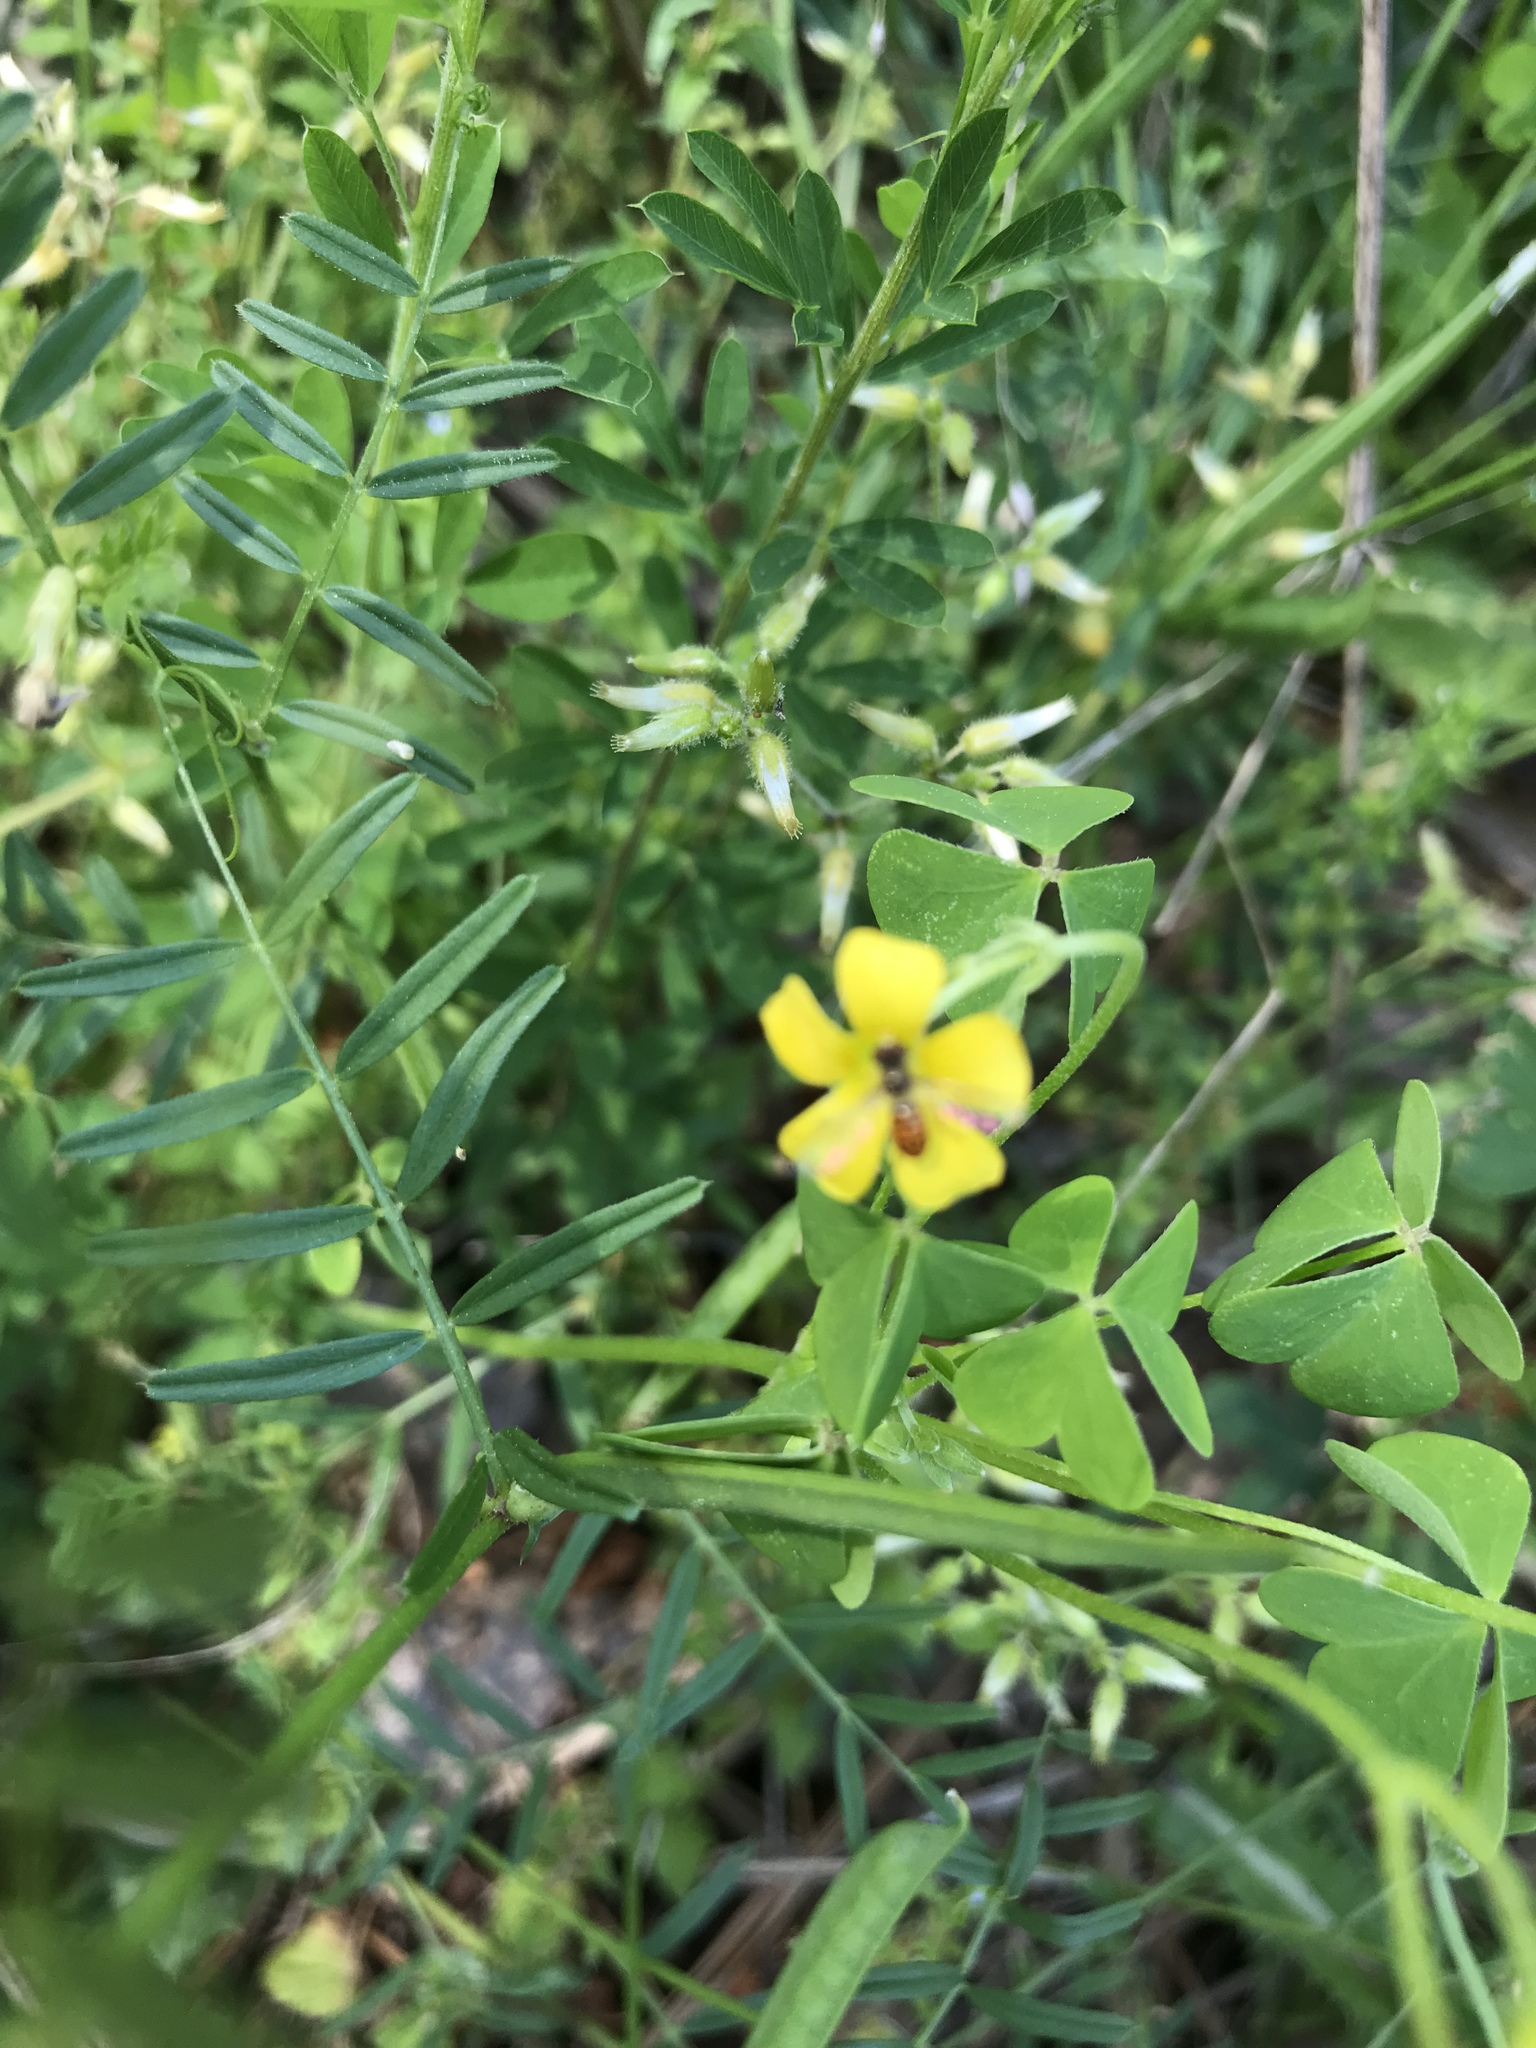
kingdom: Animalia
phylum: Arthropoda
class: Insecta
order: Diptera
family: Syrphidae
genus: Toxomerus
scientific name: Toxomerus marginatus
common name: Syrphid fly
